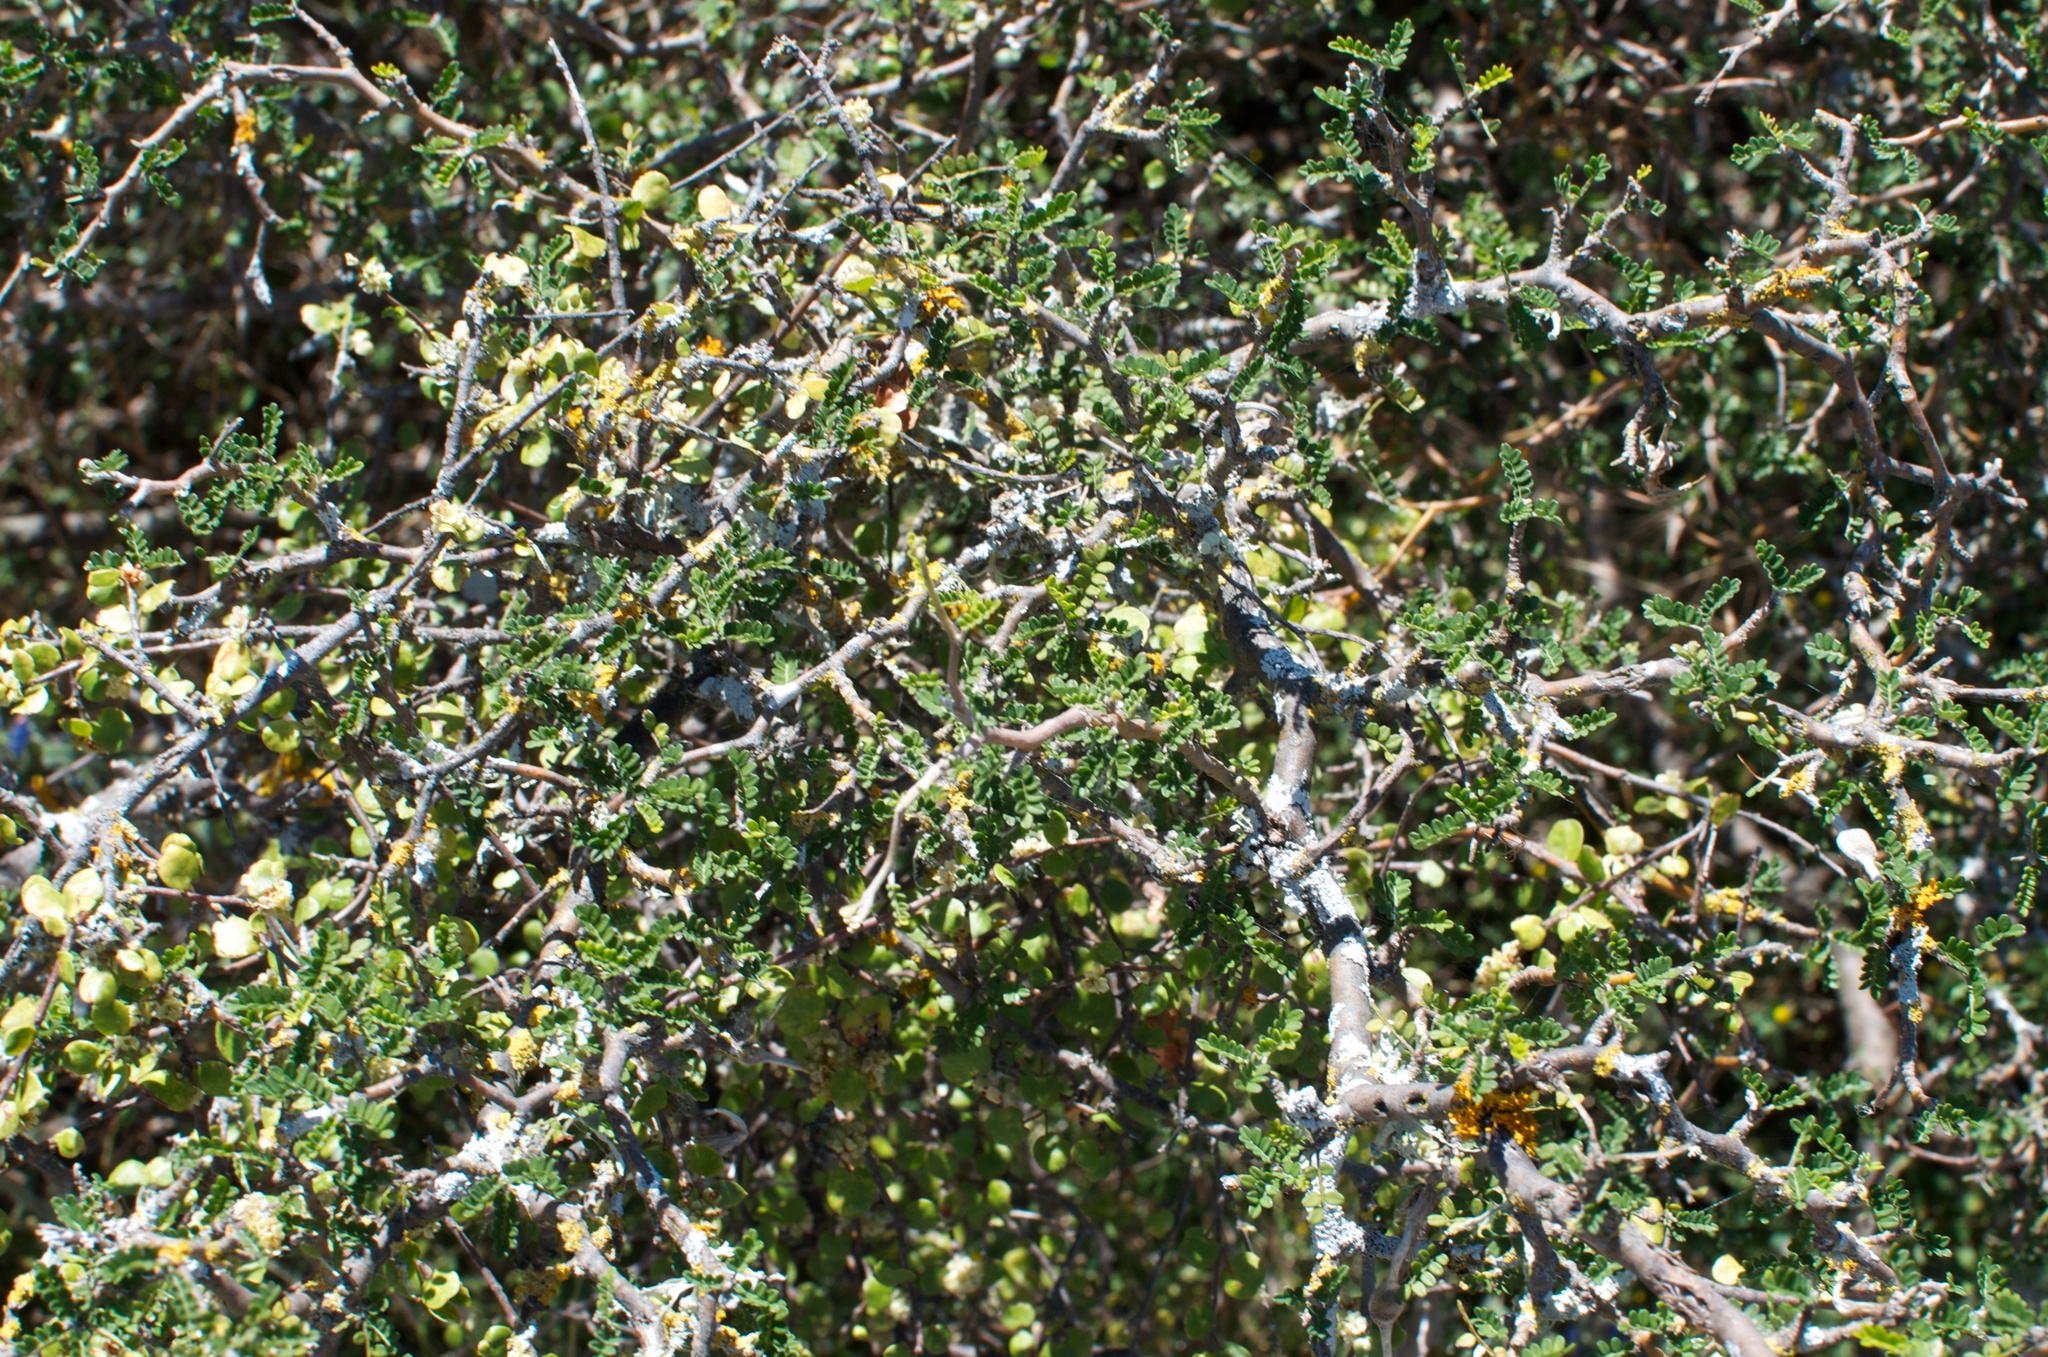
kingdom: Plantae
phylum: Tracheophyta
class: Magnoliopsida
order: Fabales
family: Fabaceae
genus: Sophora
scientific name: Sophora prostrata
